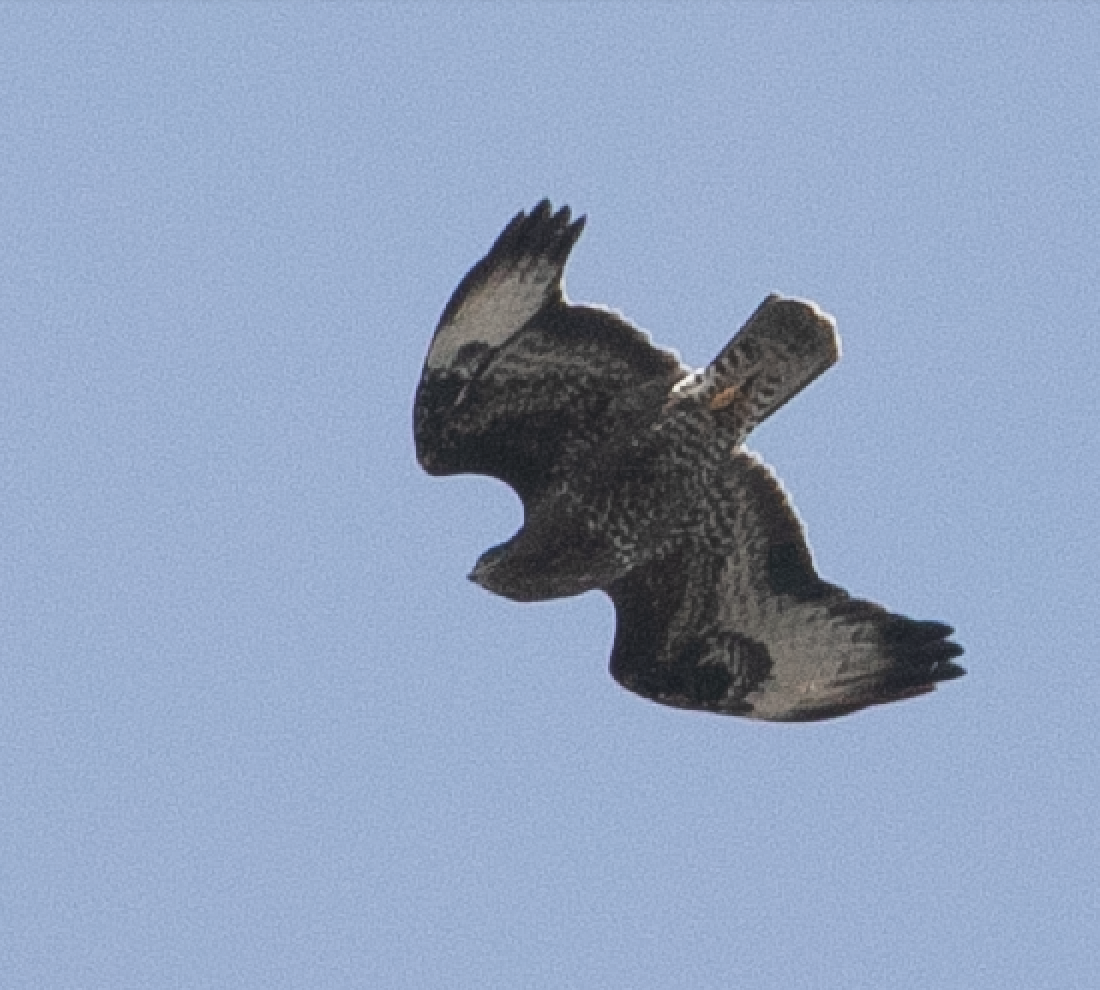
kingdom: Animalia
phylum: Chordata
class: Aves
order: Accipitriformes
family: Accipitridae
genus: Buteo
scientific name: Buteo buteo
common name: Common buzzard
